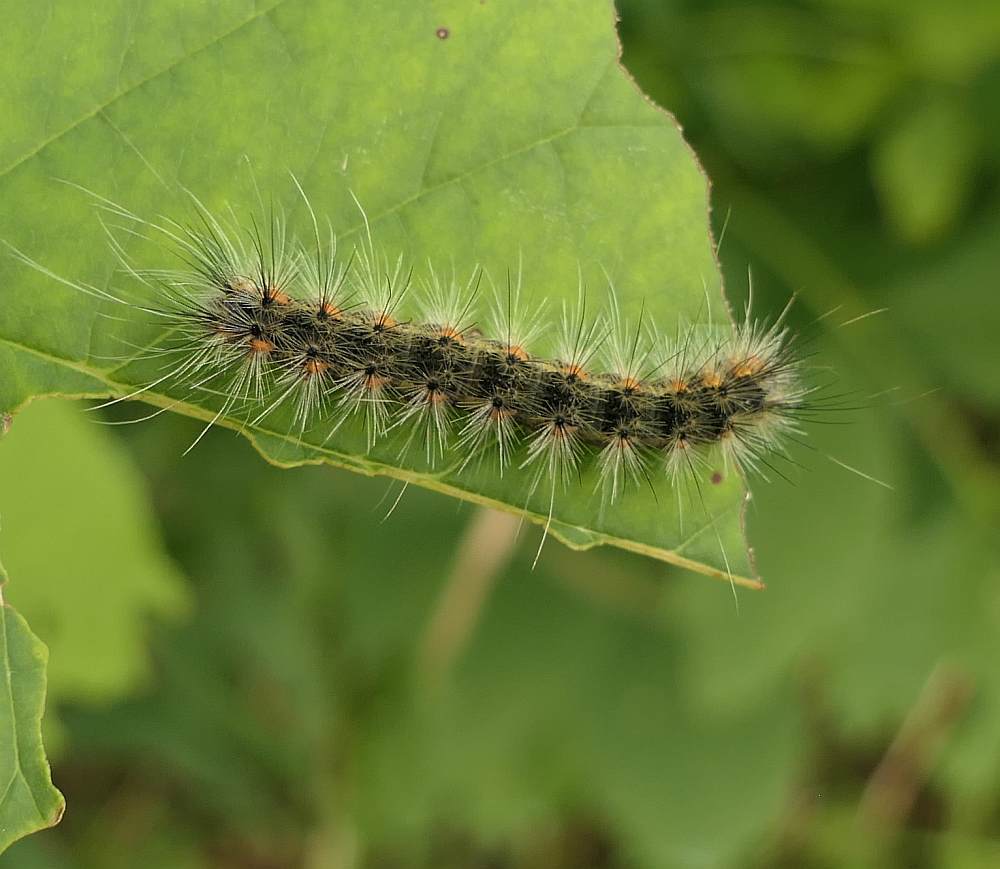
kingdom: Animalia
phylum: Arthropoda
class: Insecta
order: Lepidoptera
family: Erebidae
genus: Hyphantria
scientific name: Hyphantria cunea
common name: American white moth
